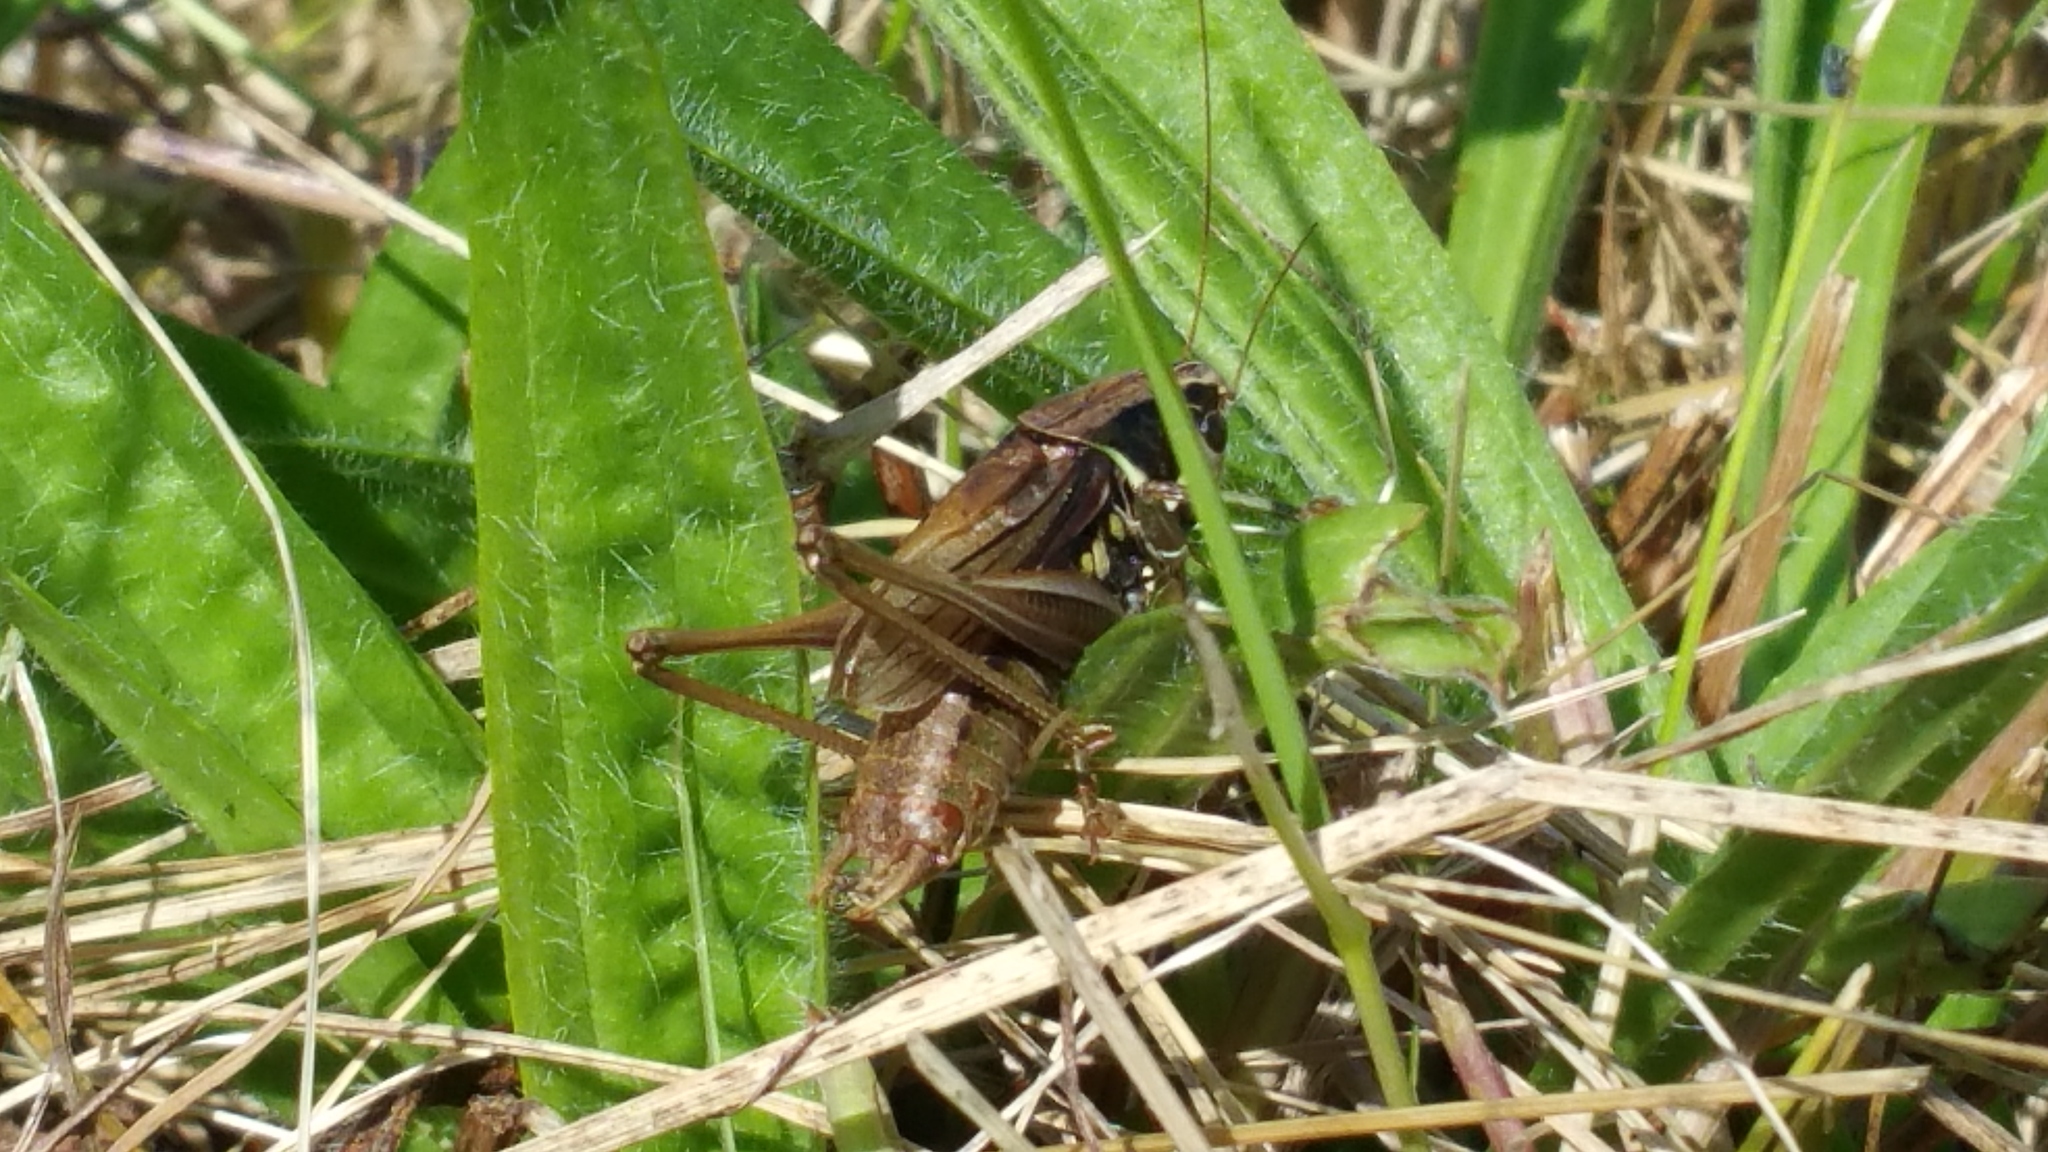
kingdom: Animalia
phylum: Arthropoda
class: Insecta
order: Orthoptera
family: Tettigoniidae
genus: Roeseliana
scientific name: Roeseliana roeselii
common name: Roesel's bush cricket
